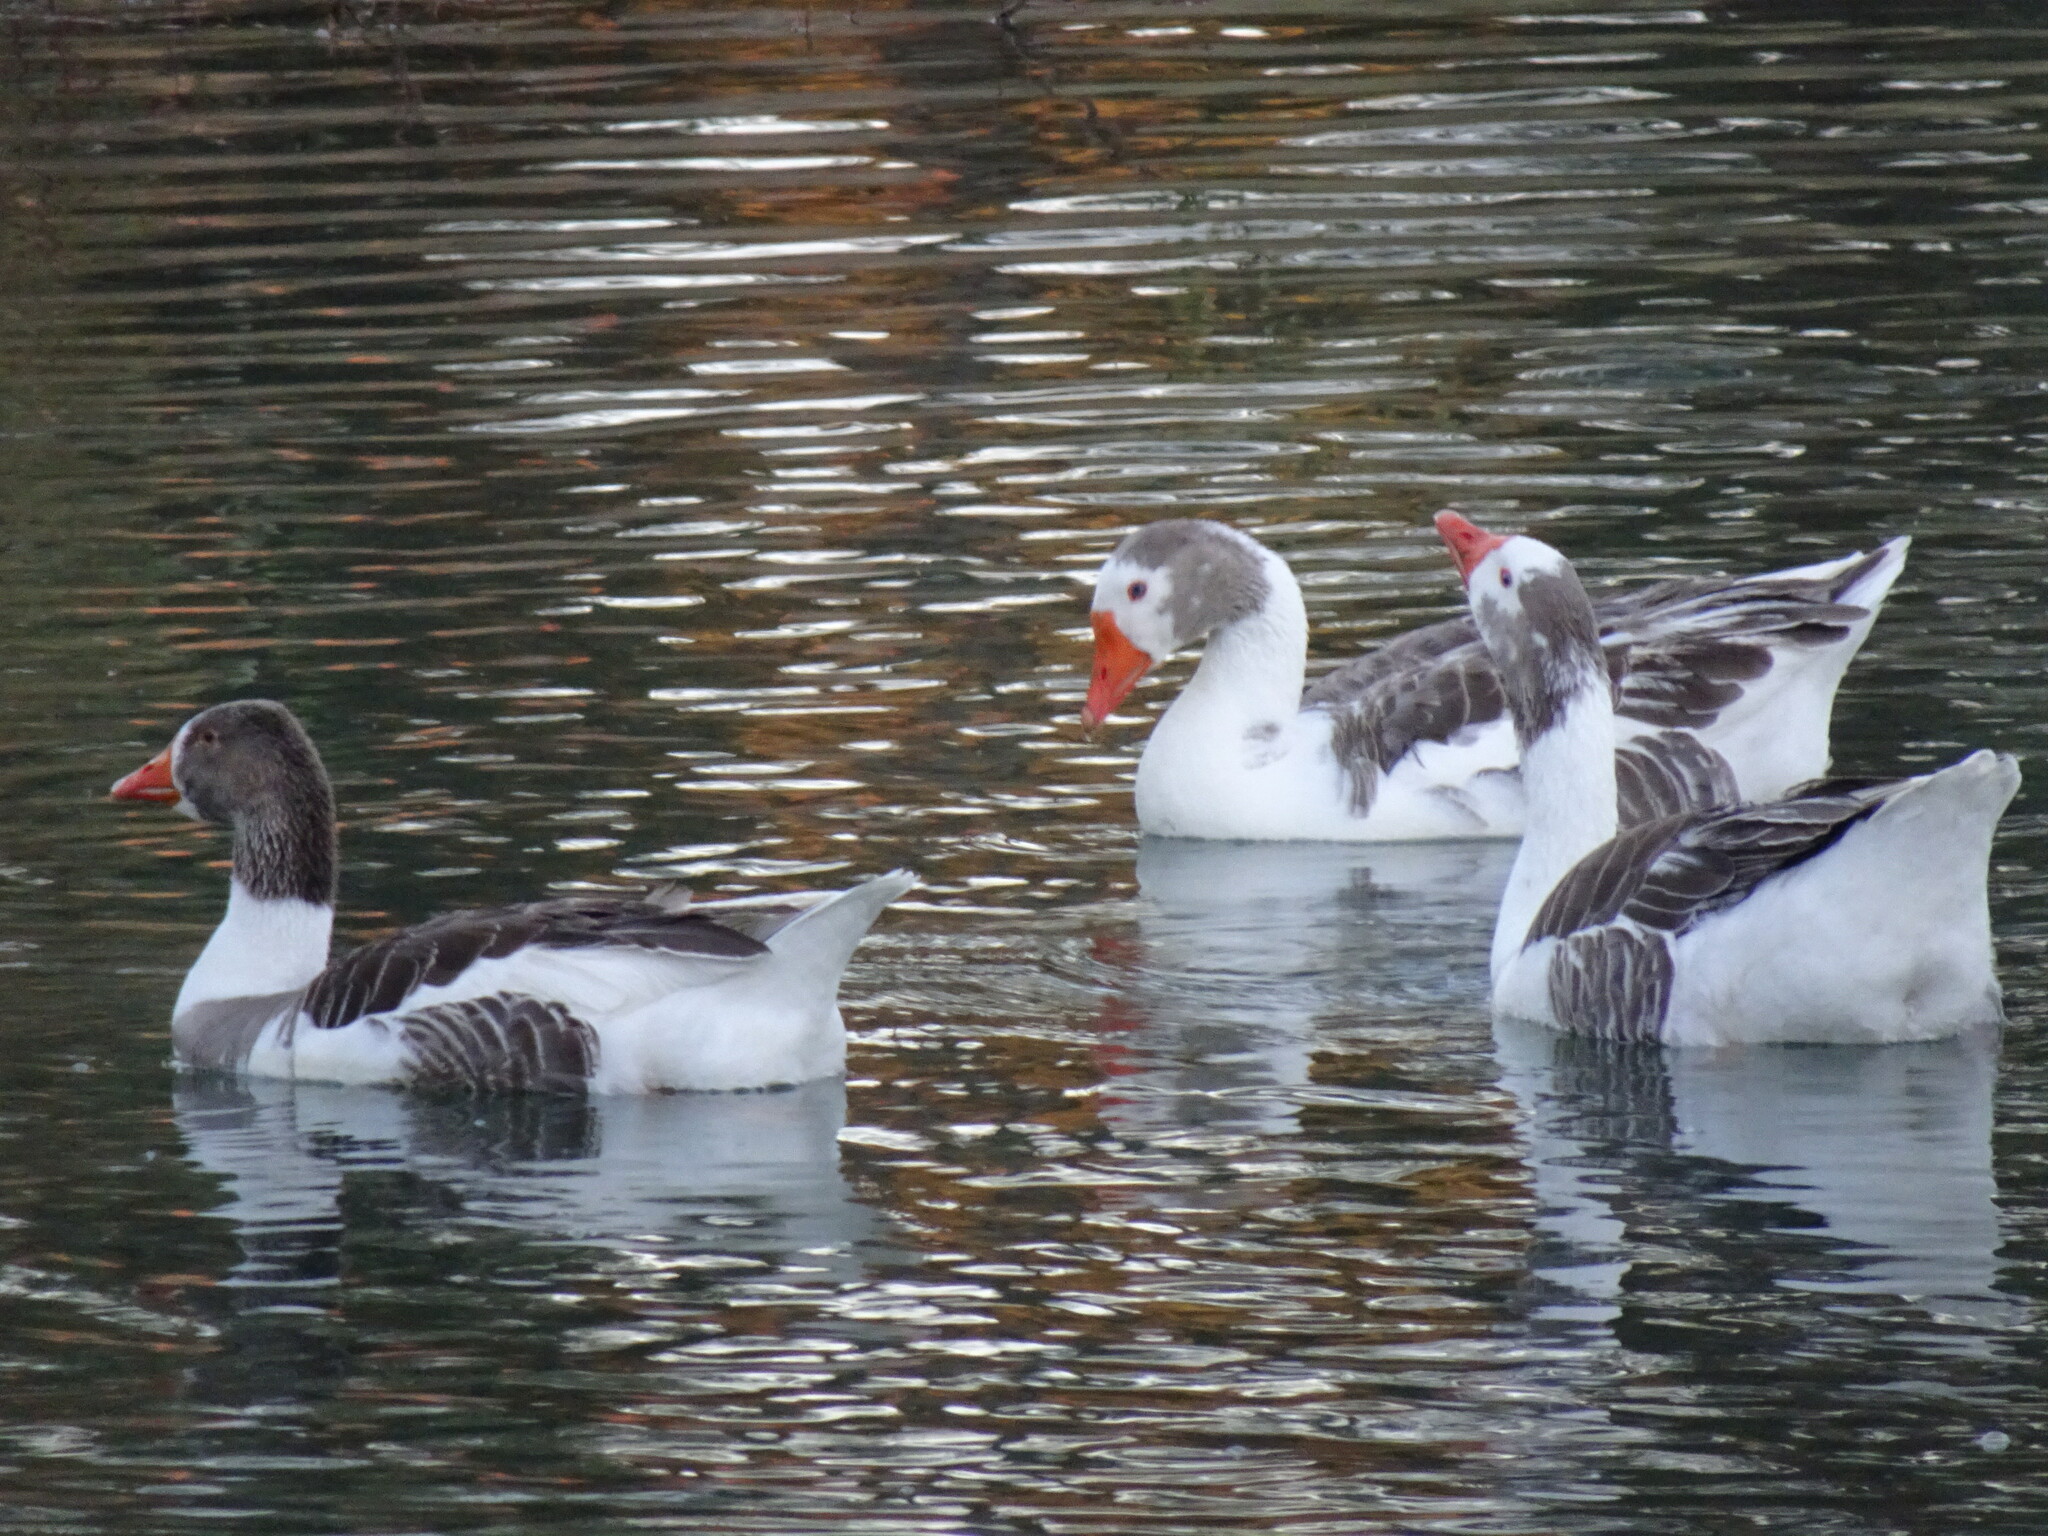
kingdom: Animalia
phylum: Chordata
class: Aves
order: Anseriformes
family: Anatidae
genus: Anser
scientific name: Anser anser
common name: Greylag goose
